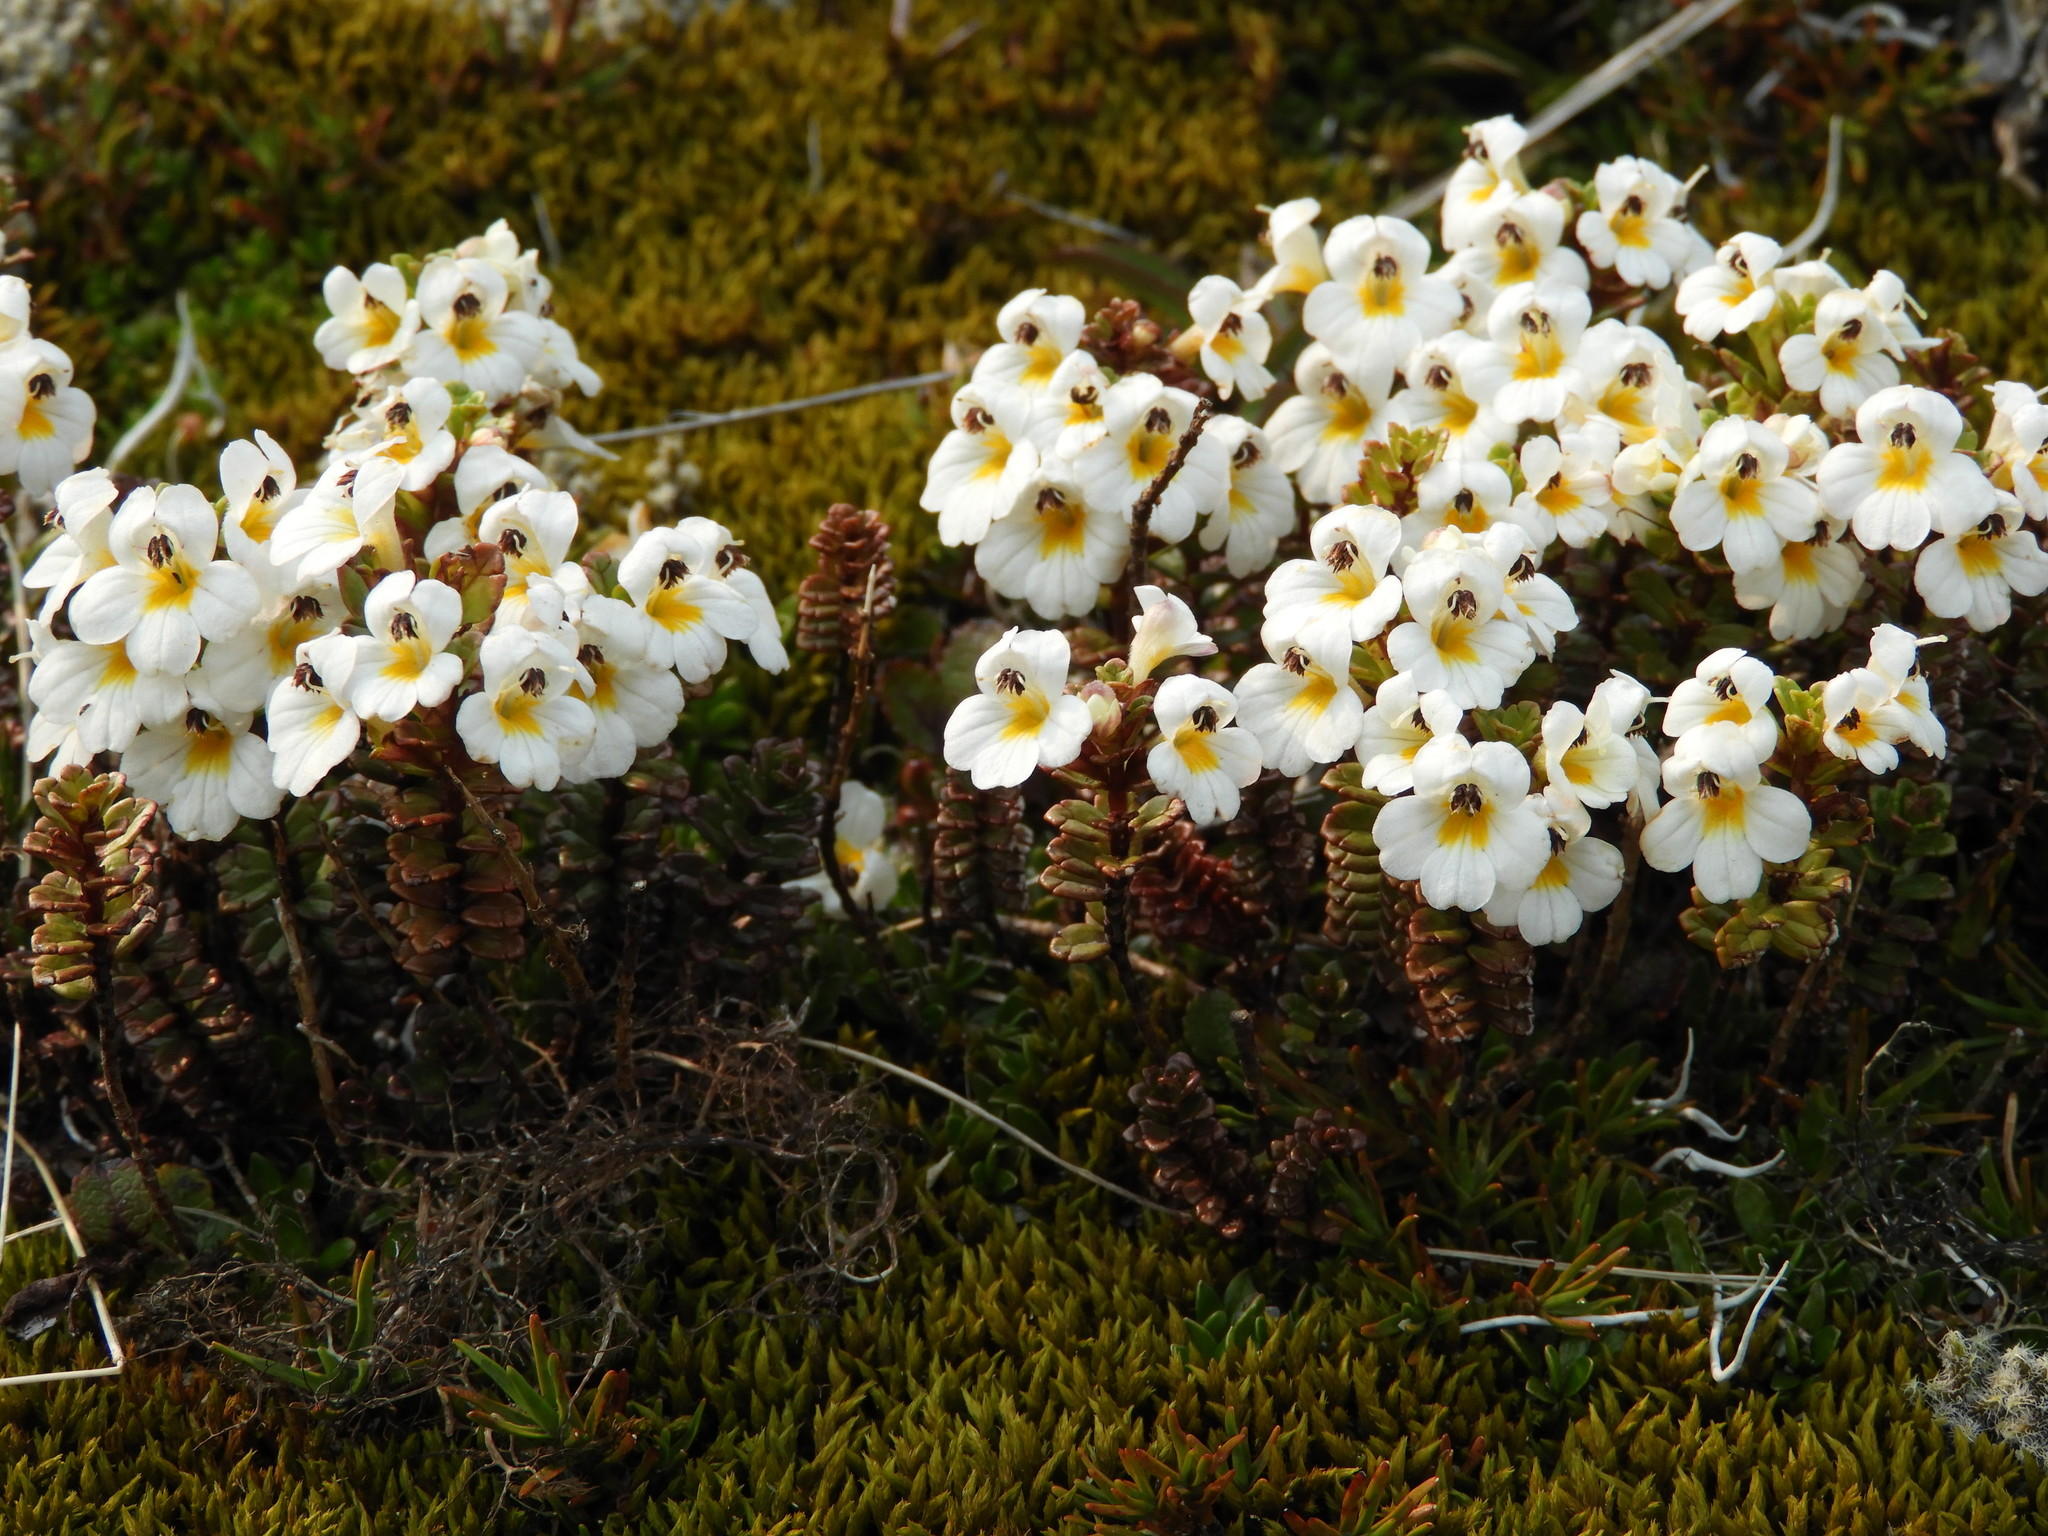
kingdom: Plantae
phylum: Tracheophyta
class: Magnoliopsida
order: Lamiales
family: Orobanchaceae
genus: Euphrasia
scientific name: Euphrasia monroi
